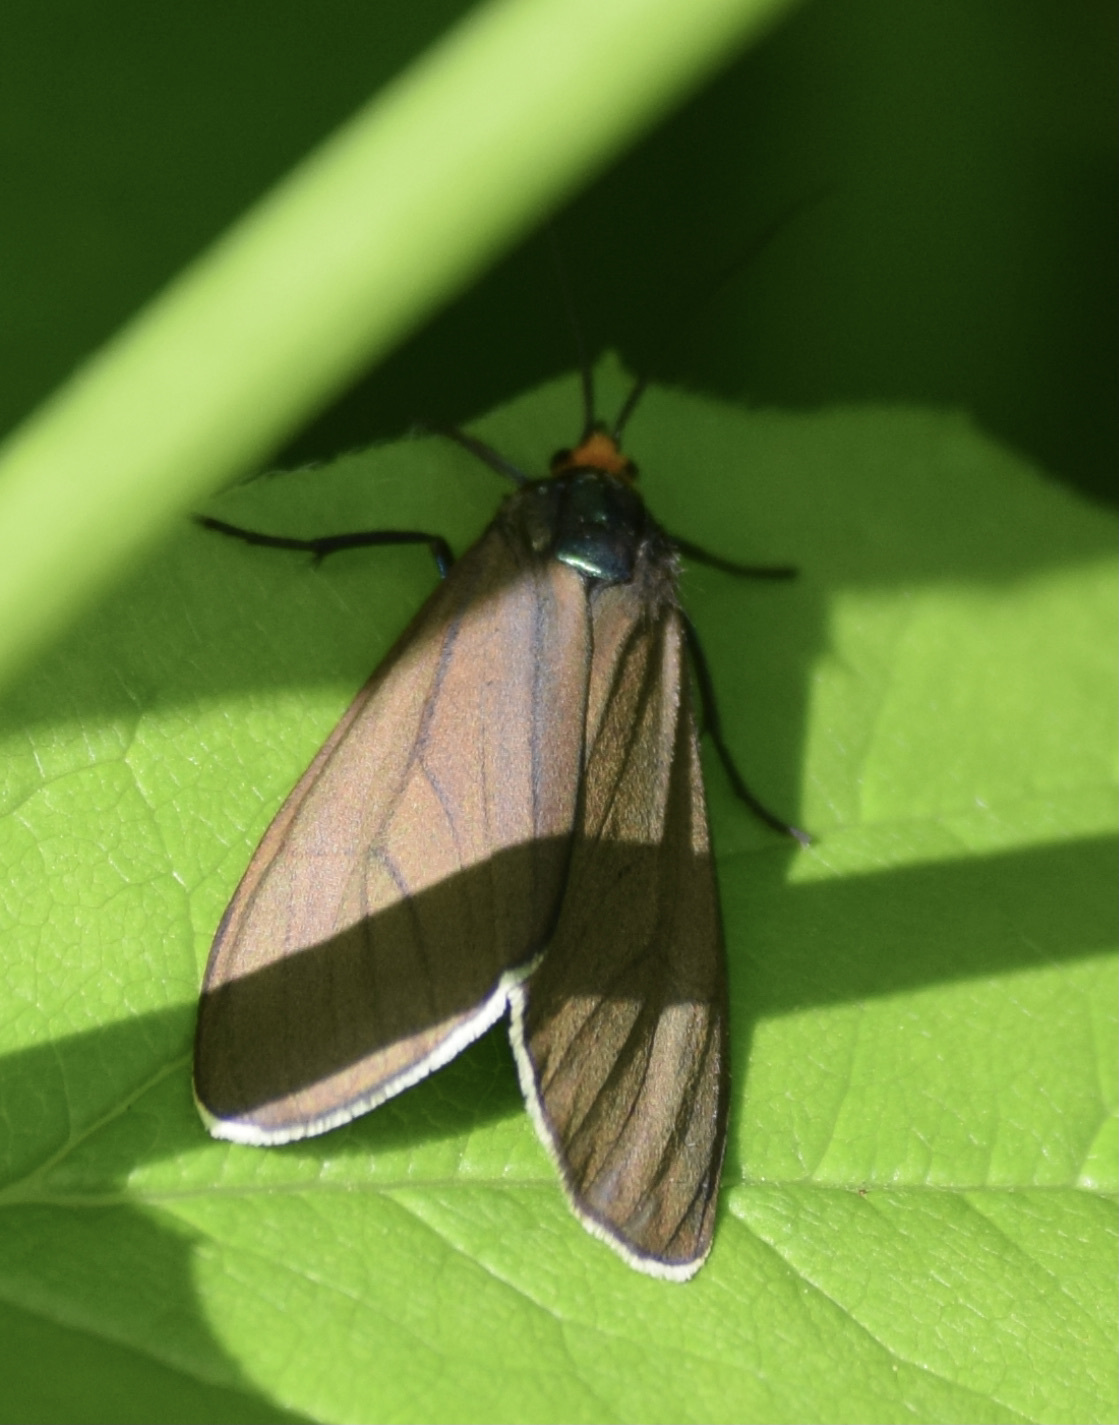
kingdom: Animalia
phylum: Arthropoda
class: Insecta
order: Lepidoptera
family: Erebidae
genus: Ctenucha
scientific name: Ctenucha virginica
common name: Virginia ctenucha moth
